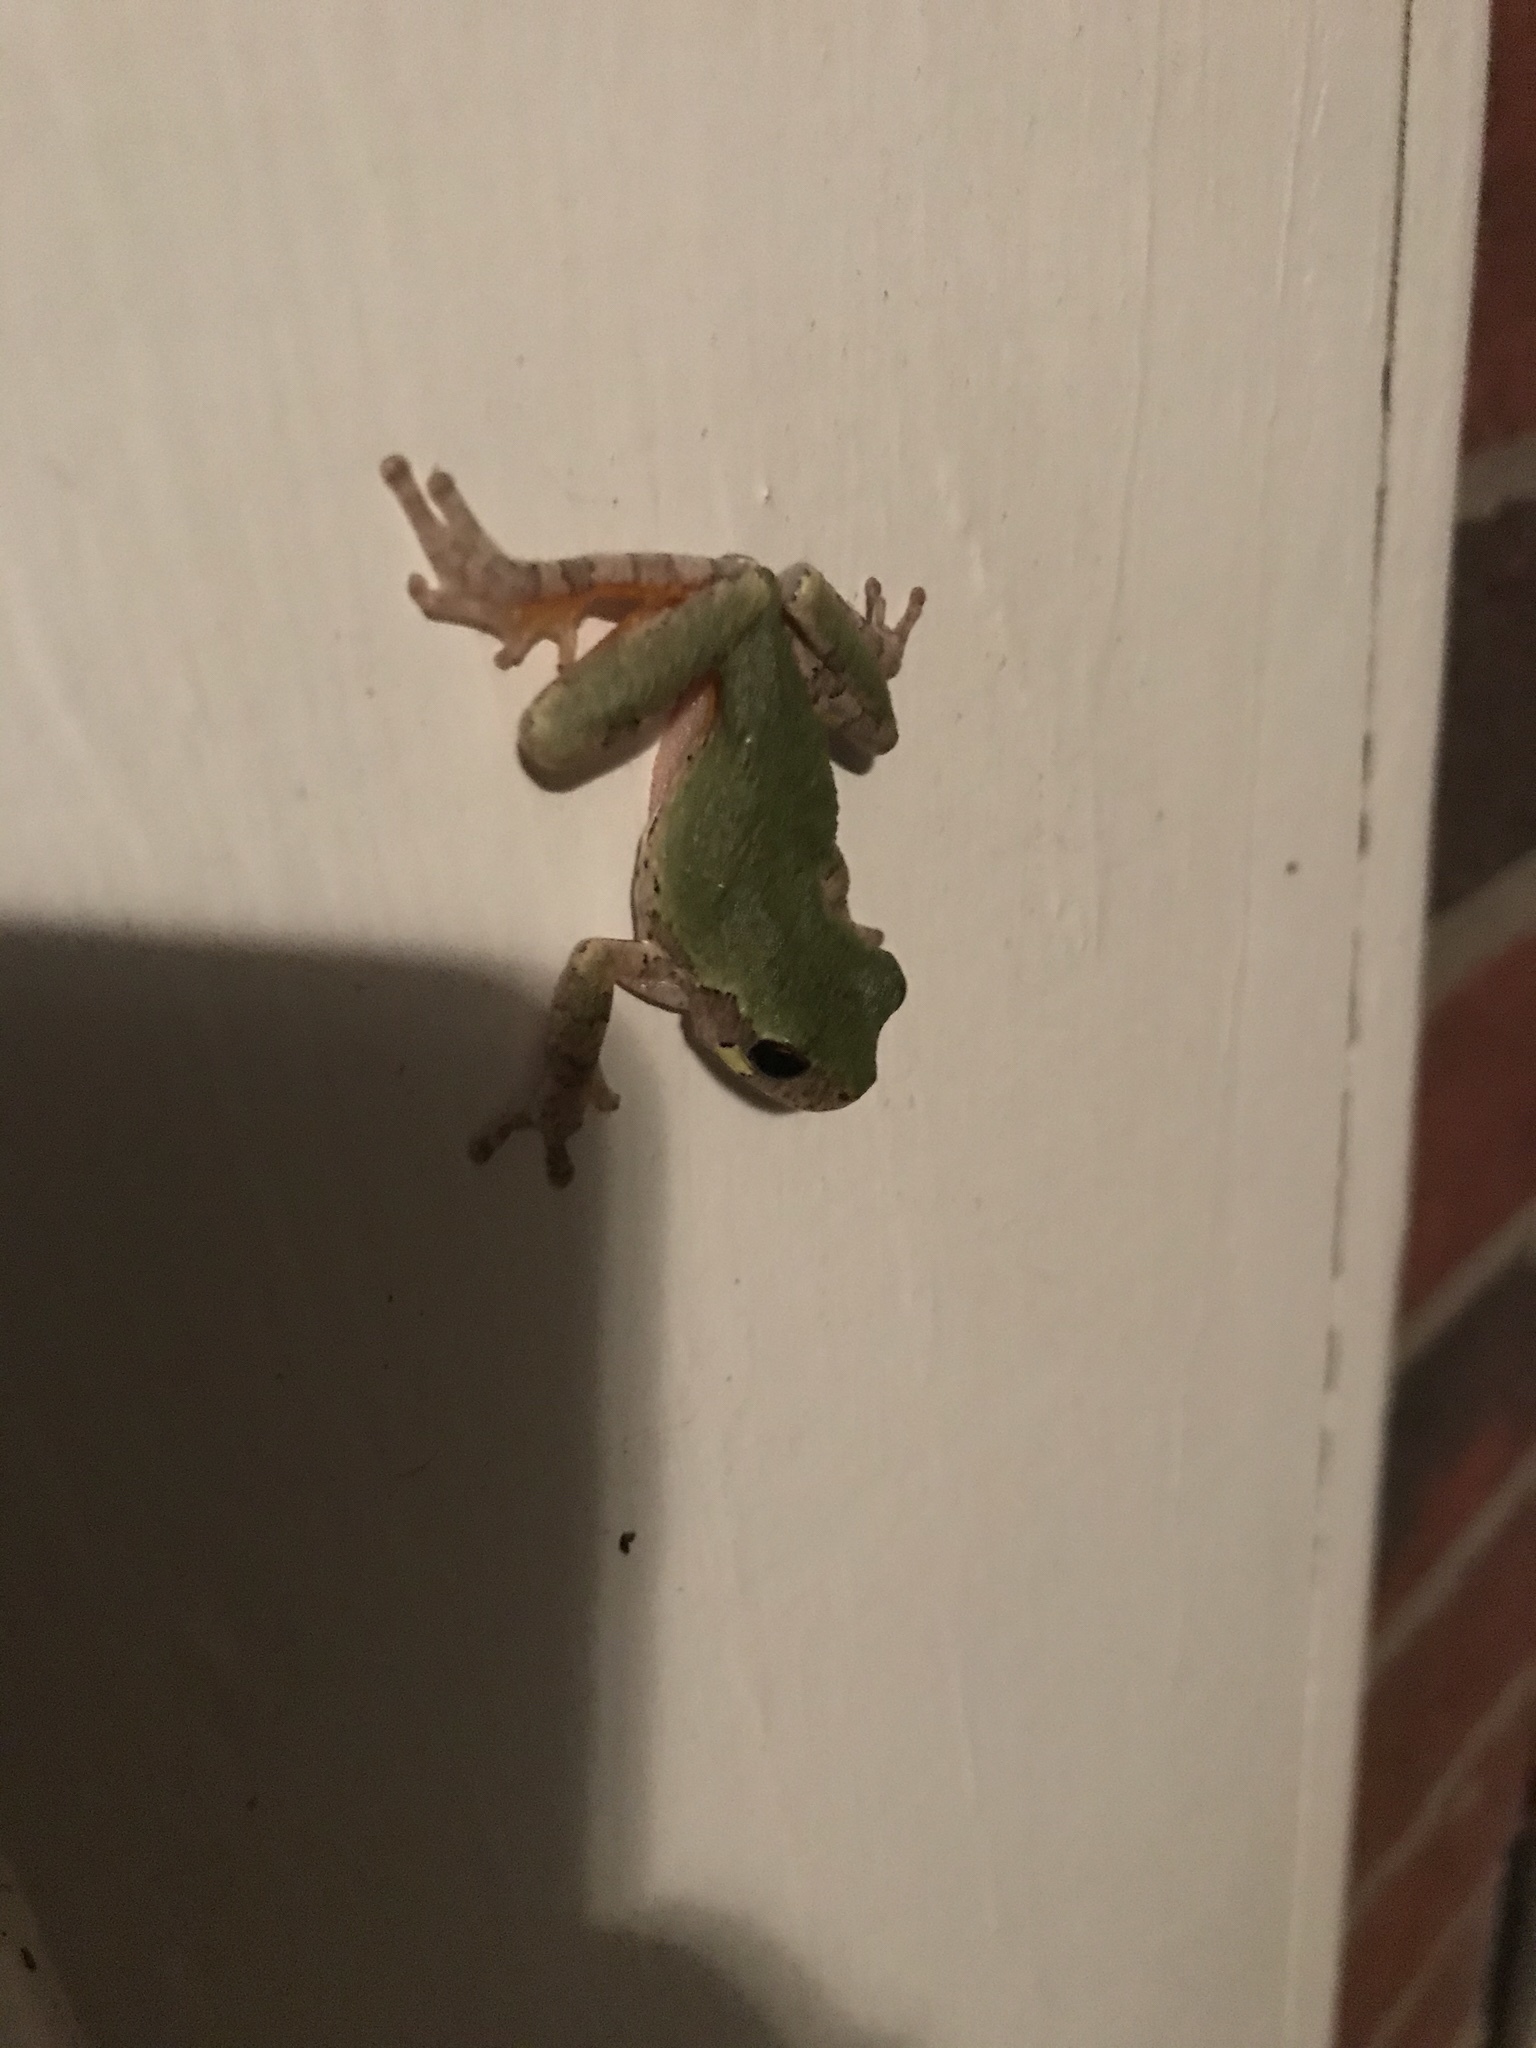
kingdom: Animalia
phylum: Chordata
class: Amphibia
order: Anura
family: Hylidae
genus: Hyla
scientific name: Hyla
